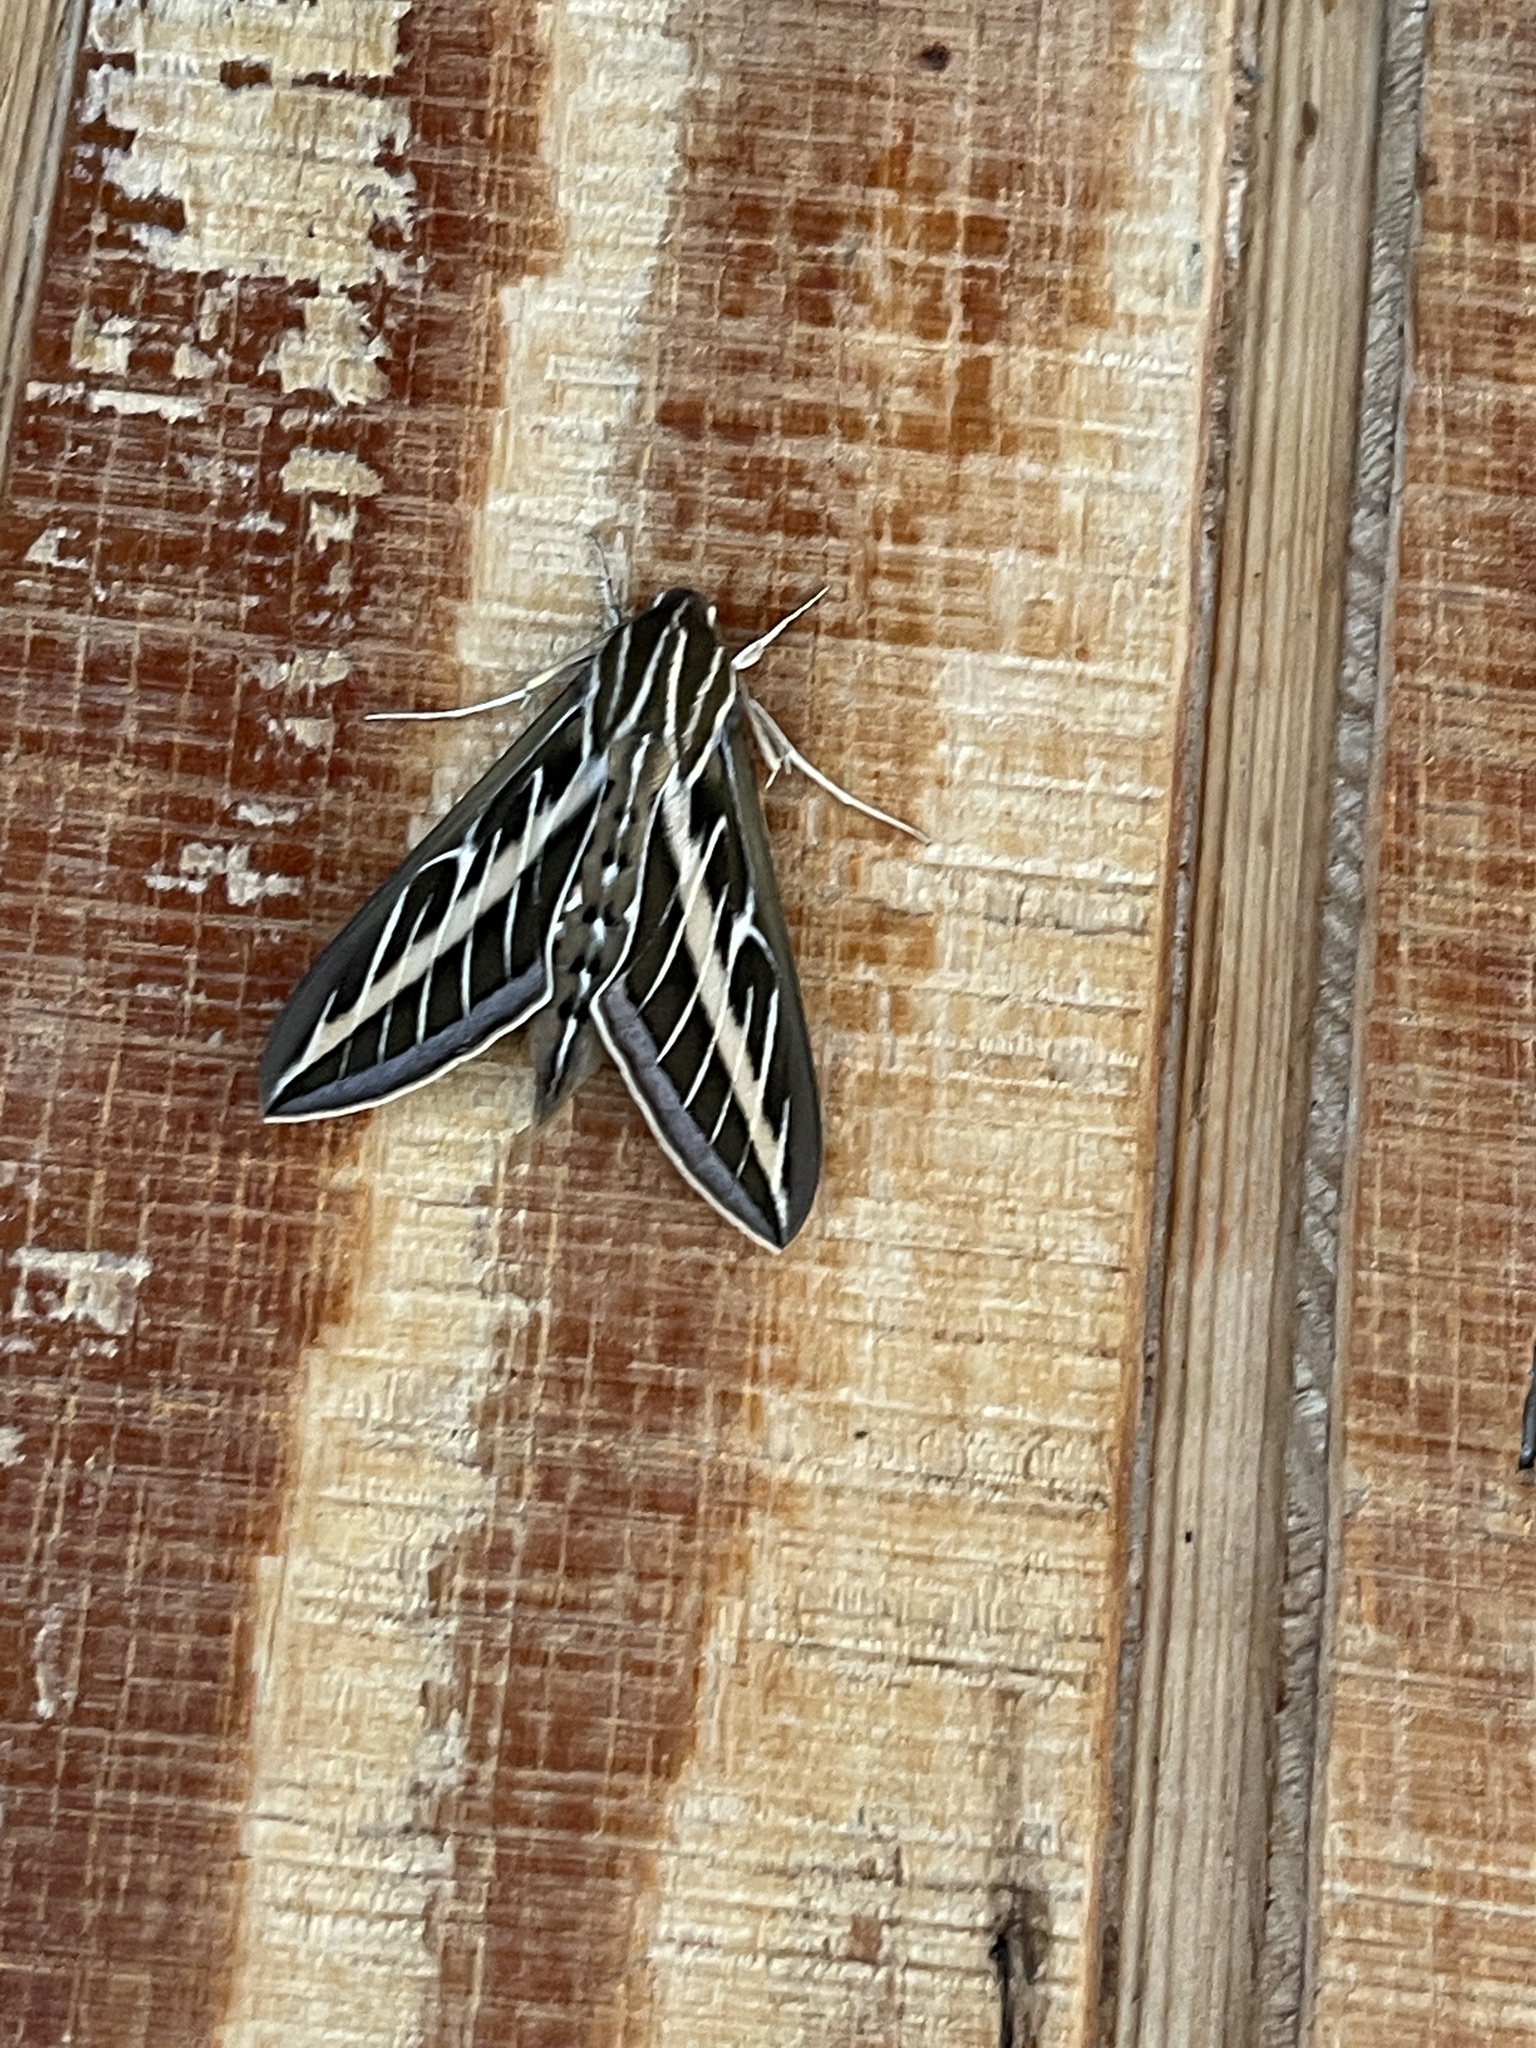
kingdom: Animalia
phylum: Arthropoda
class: Insecta
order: Lepidoptera
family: Sphingidae
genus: Hyles
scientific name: Hyles lineata
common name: White-lined sphinx
